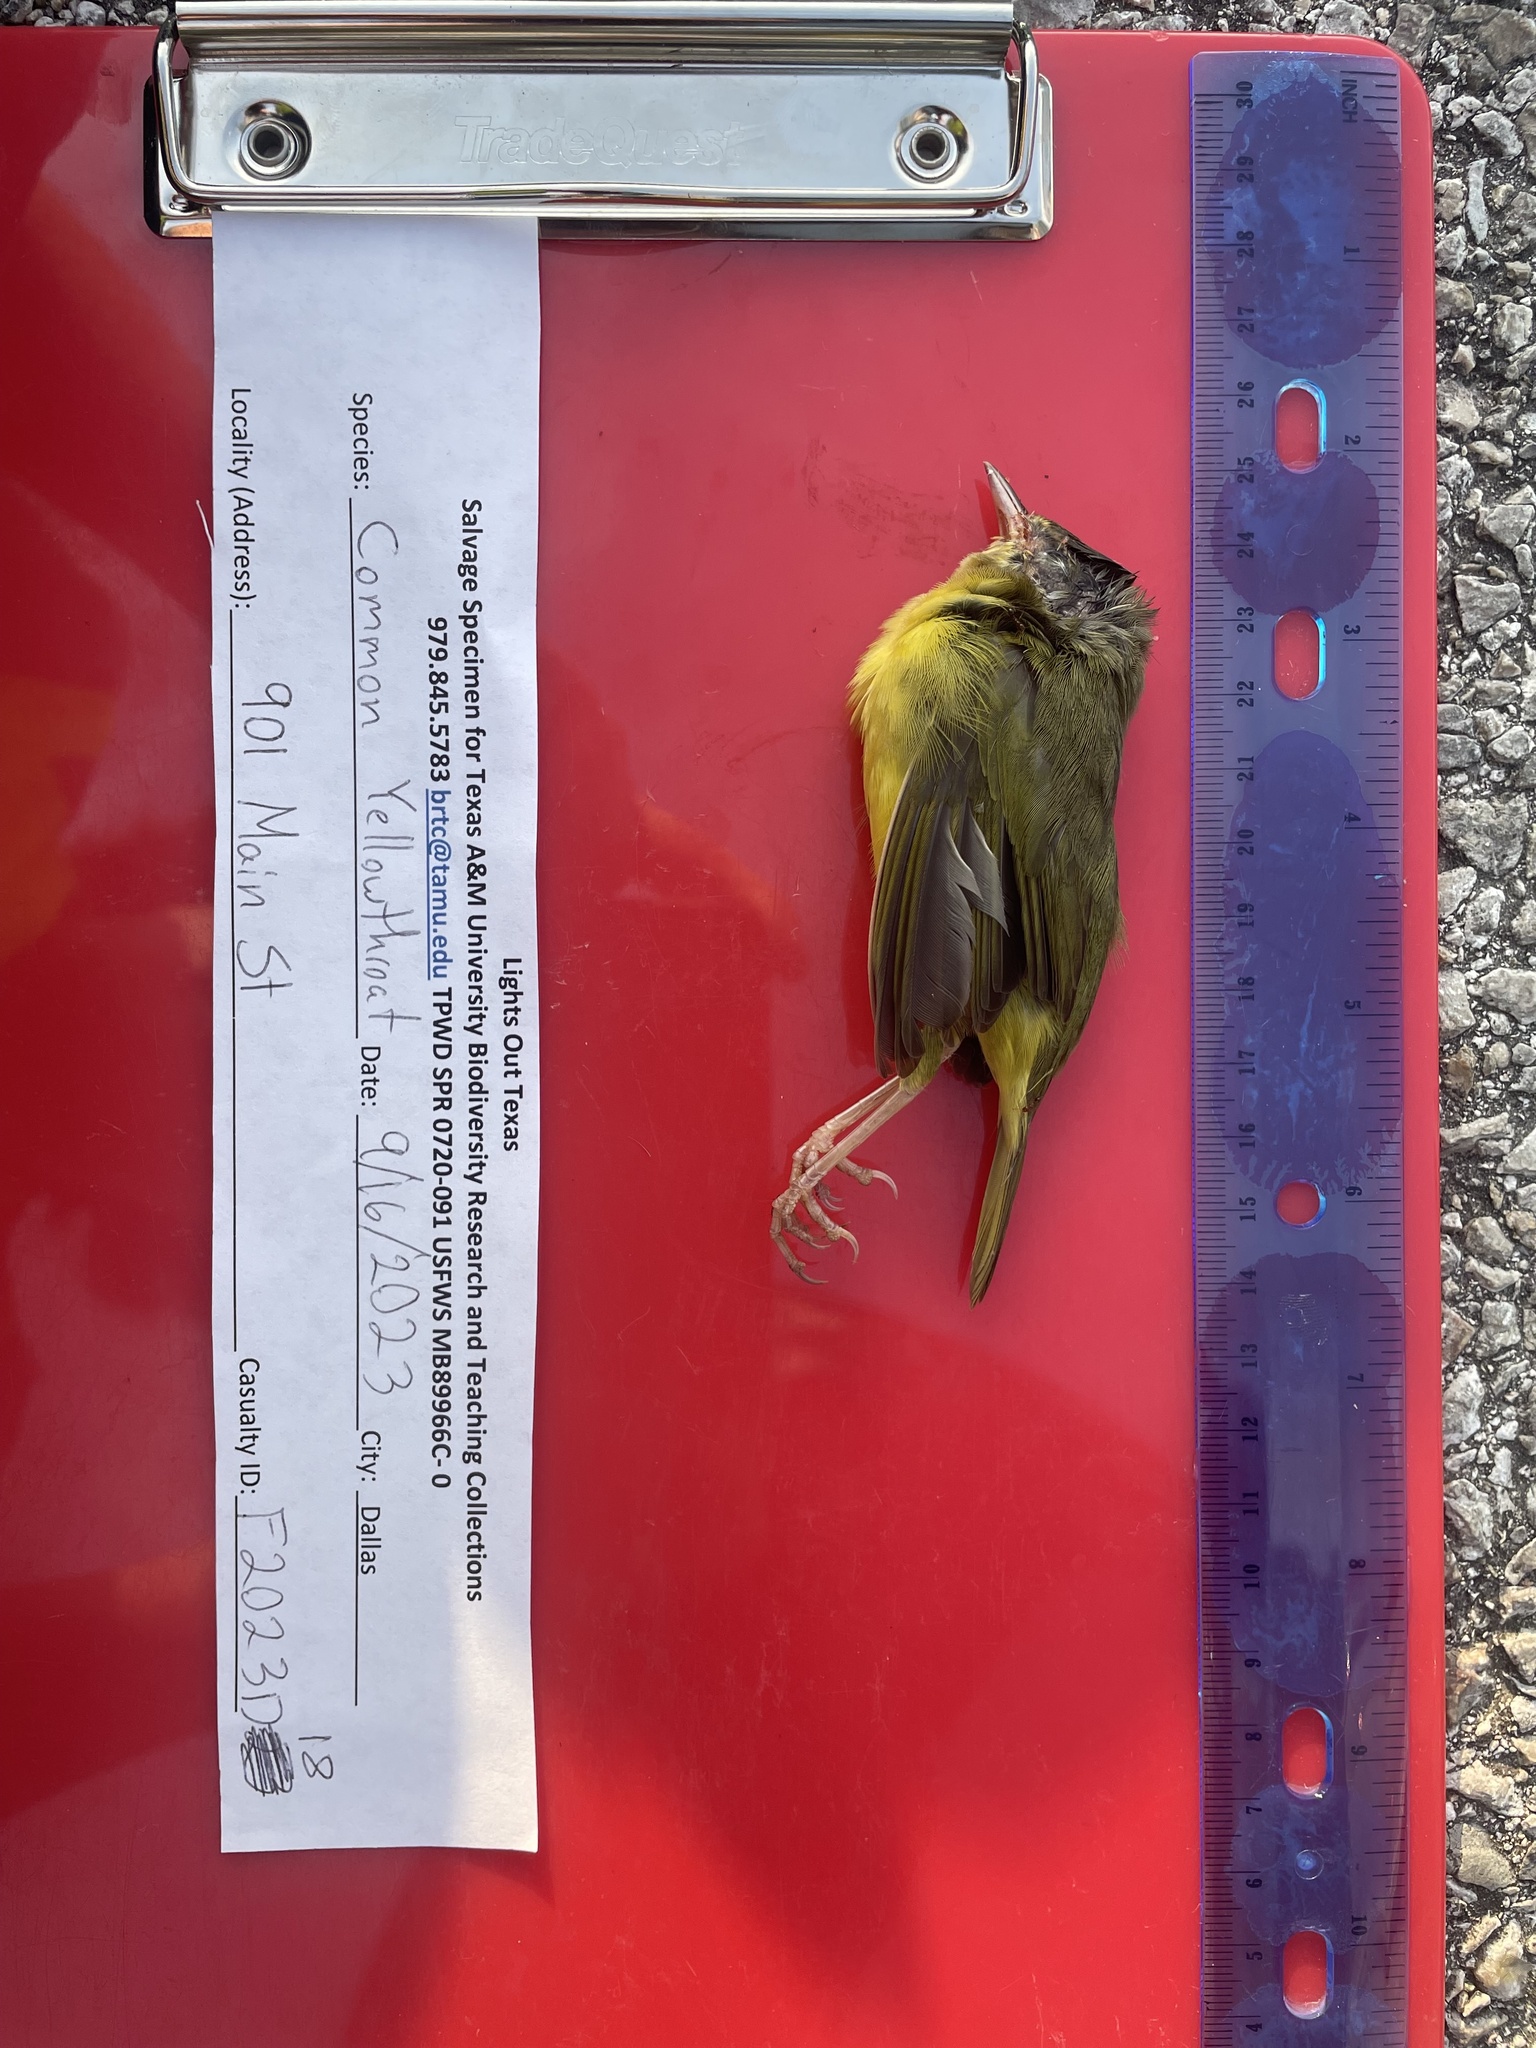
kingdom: Animalia
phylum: Chordata
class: Aves
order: Passeriformes
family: Parulidae
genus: Geothlypis
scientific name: Geothlypis trichas
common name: Common yellowthroat
